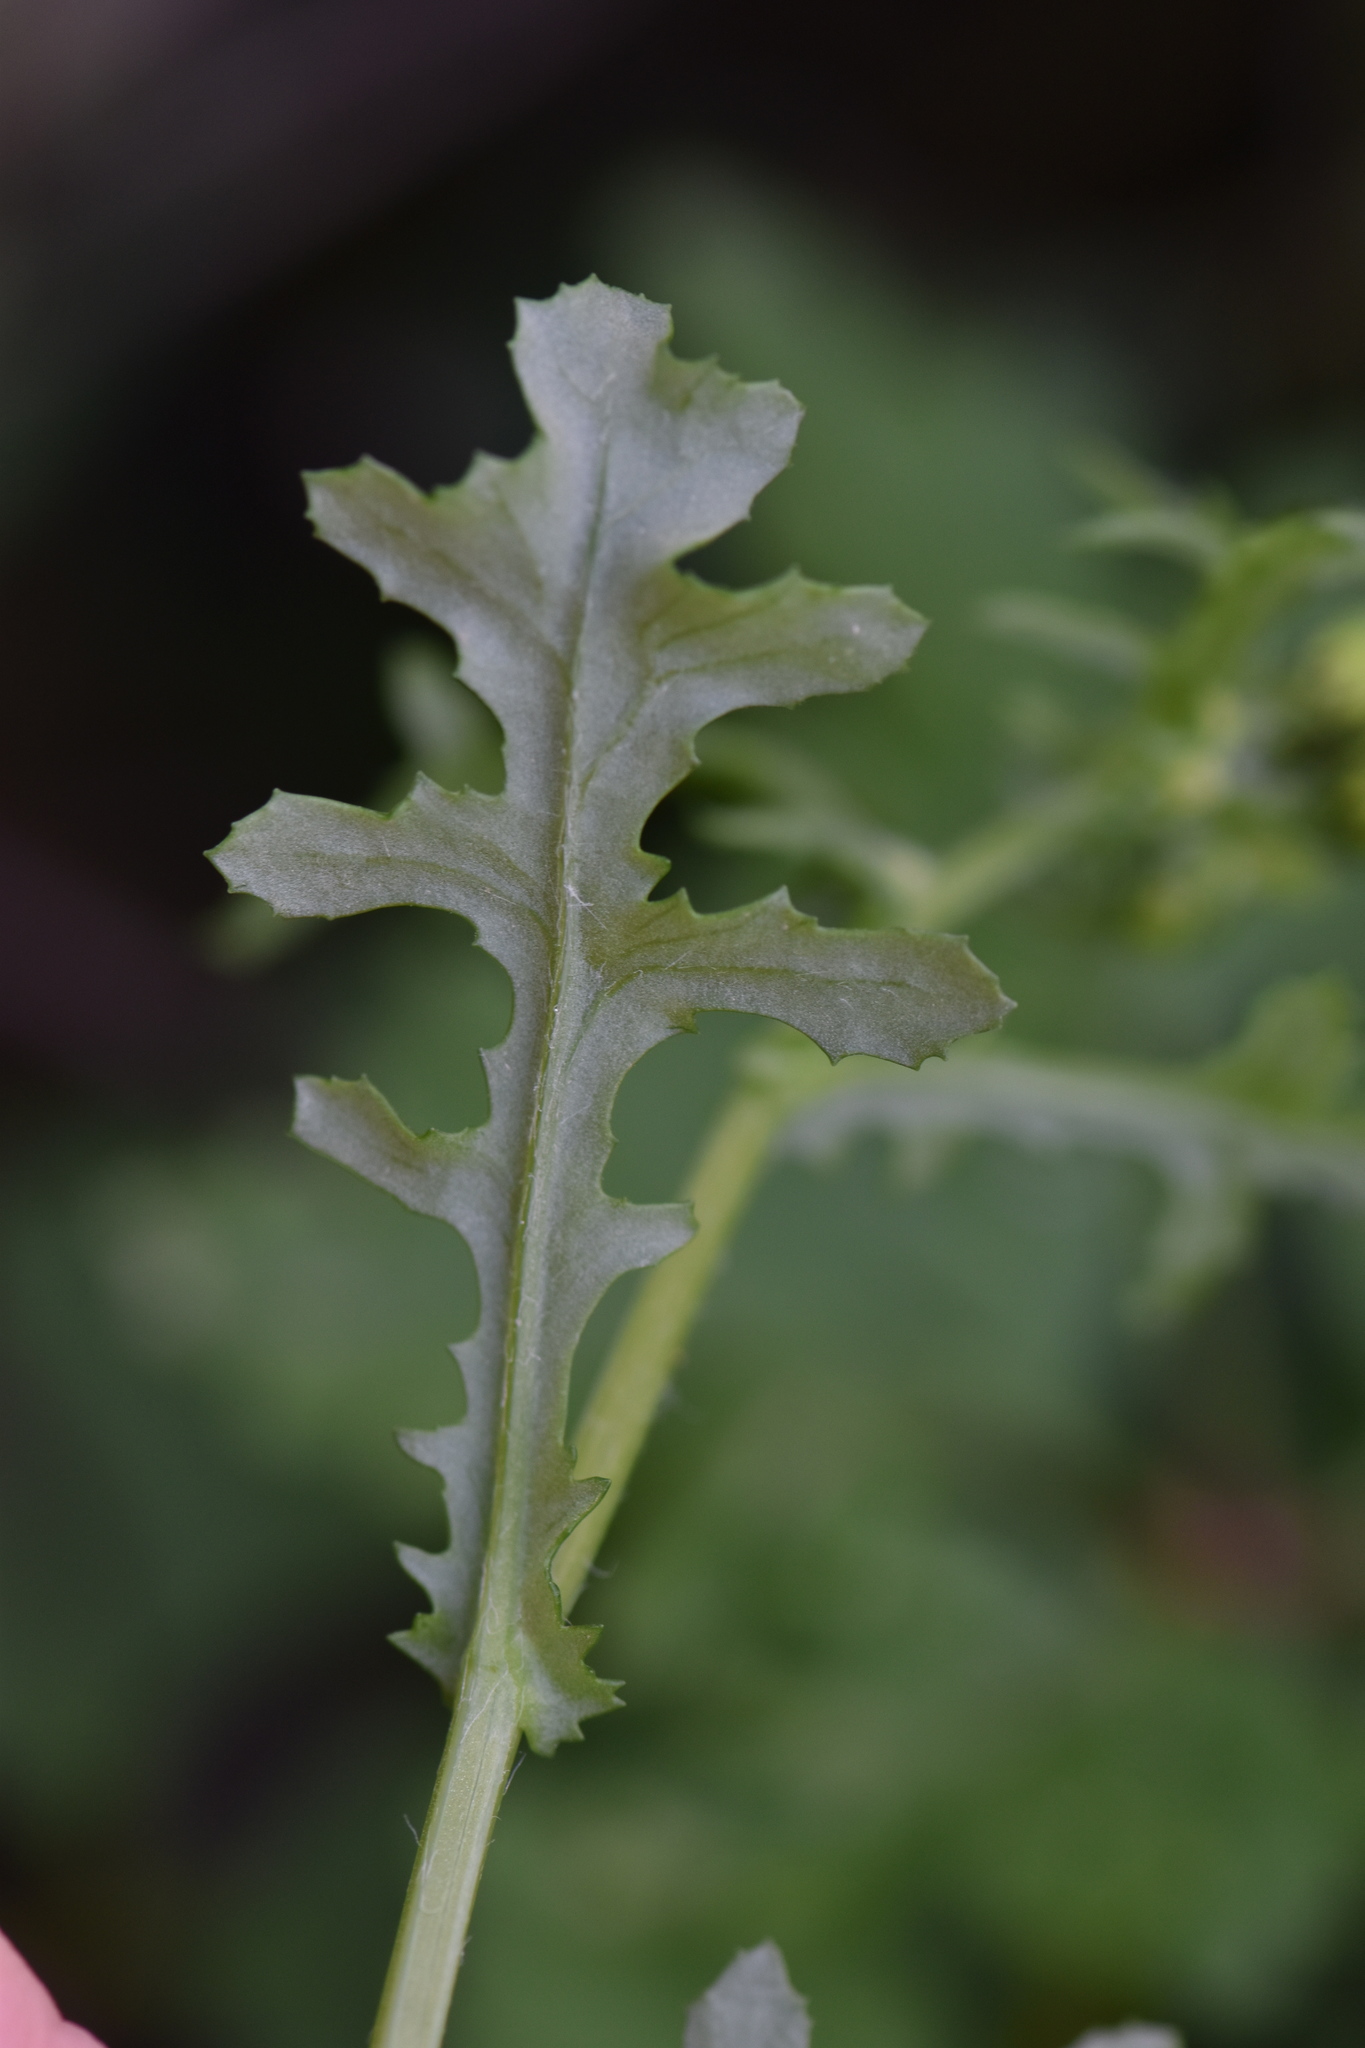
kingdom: Plantae
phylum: Tracheophyta
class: Magnoliopsida
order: Asterales
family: Asteraceae
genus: Senecio
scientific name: Senecio vulgaris
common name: Old-man-in-the-spring
